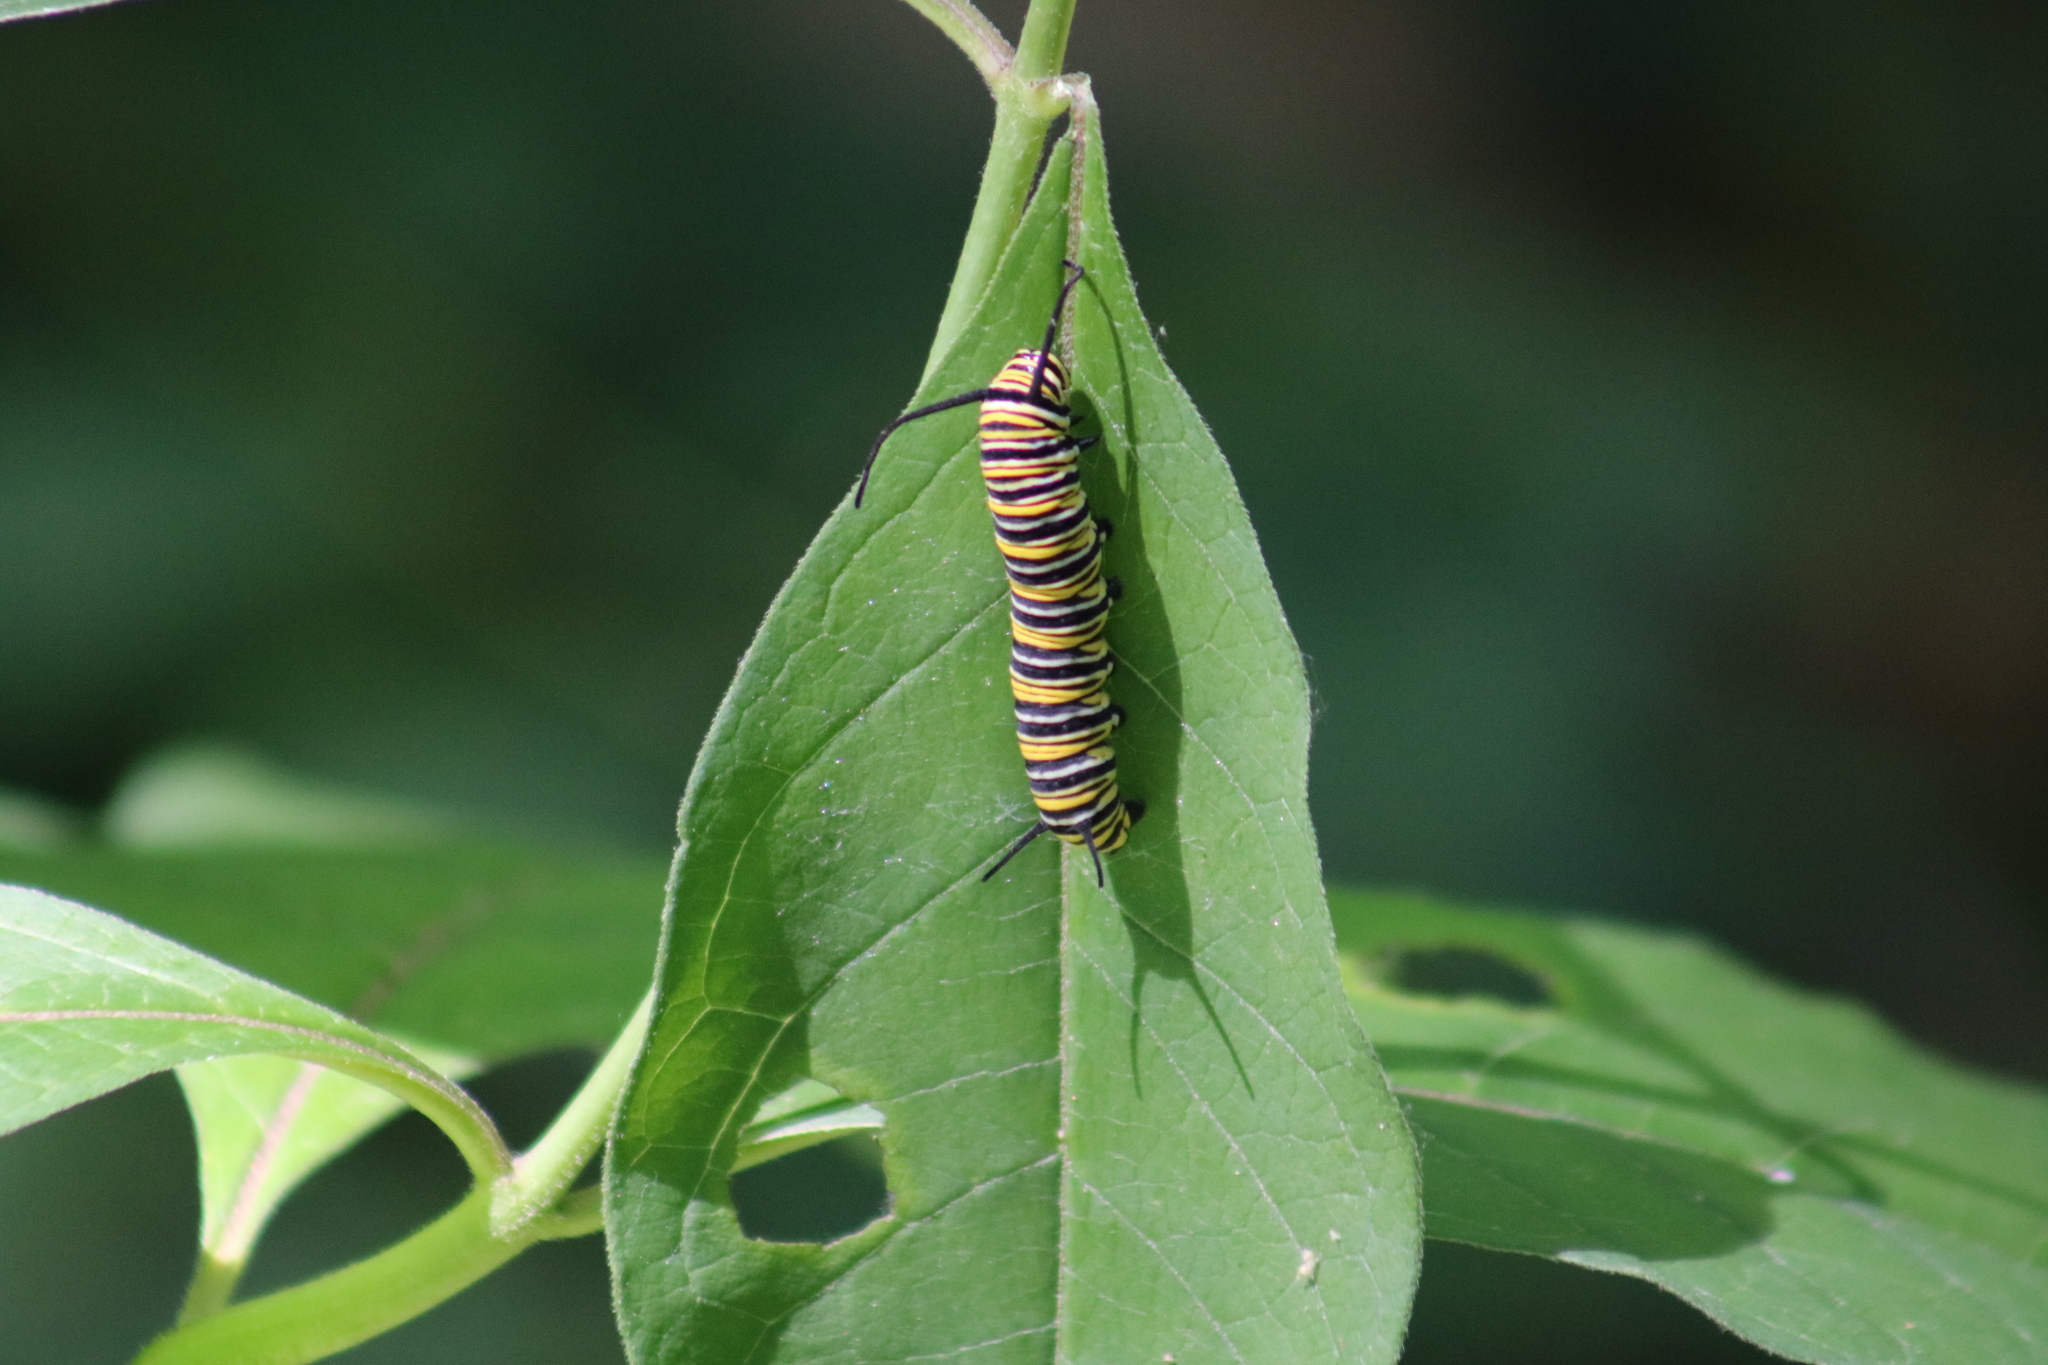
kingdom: Animalia
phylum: Arthropoda
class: Insecta
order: Lepidoptera
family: Nymphalidae
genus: Danaus
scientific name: Danaus plexippus
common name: Monarch
